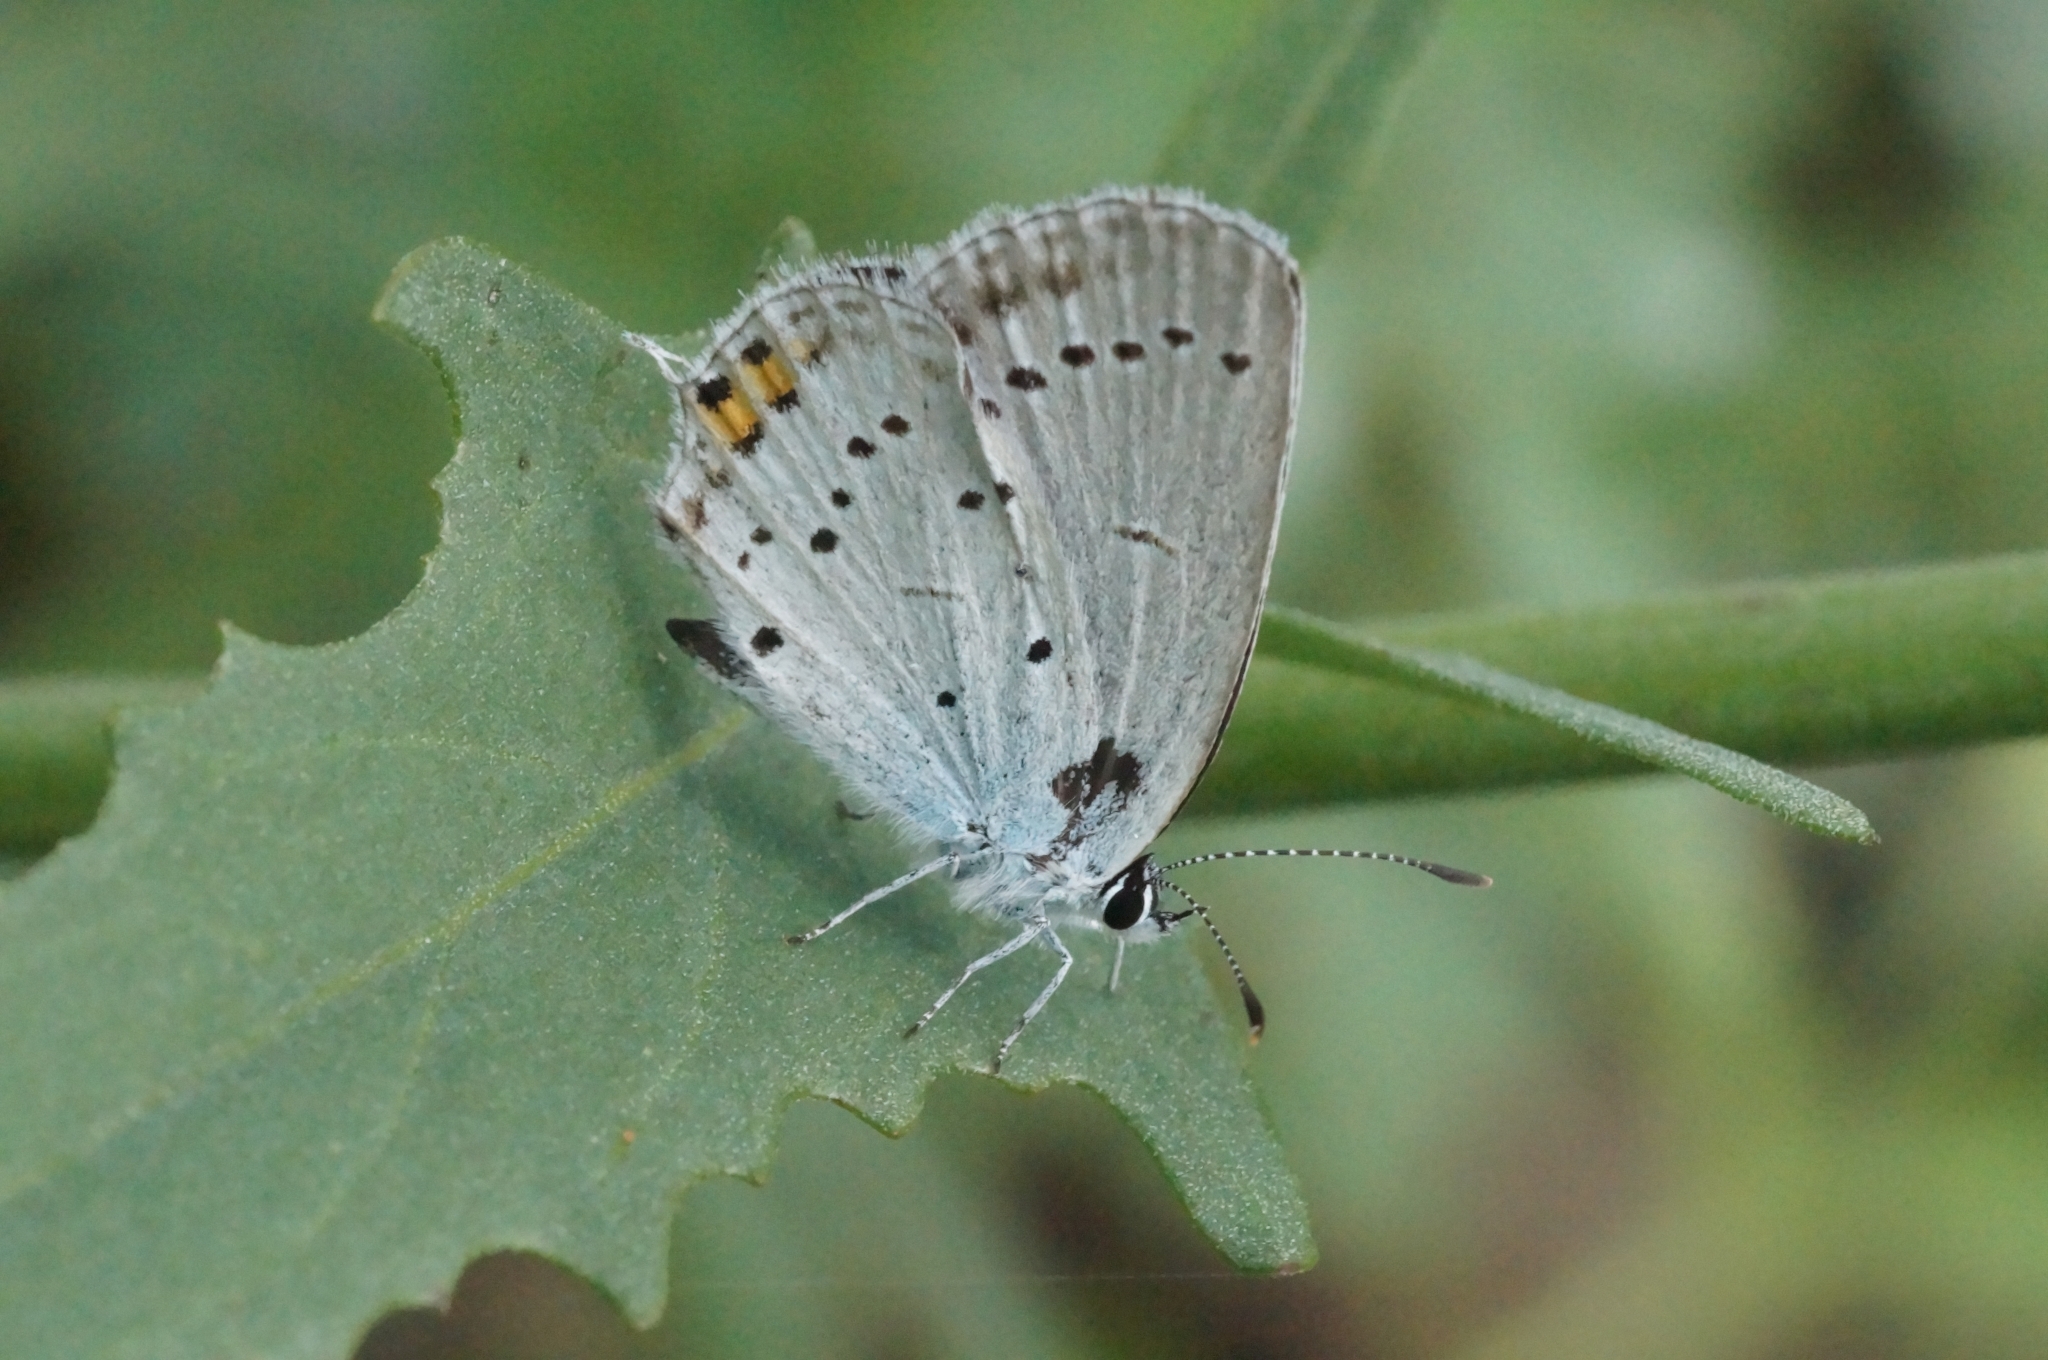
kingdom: Animalia
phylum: Arthropoda
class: Insecta
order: Lepidoptera
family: Lycaenidae
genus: Elkalyce
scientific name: Elkalyce argiades
